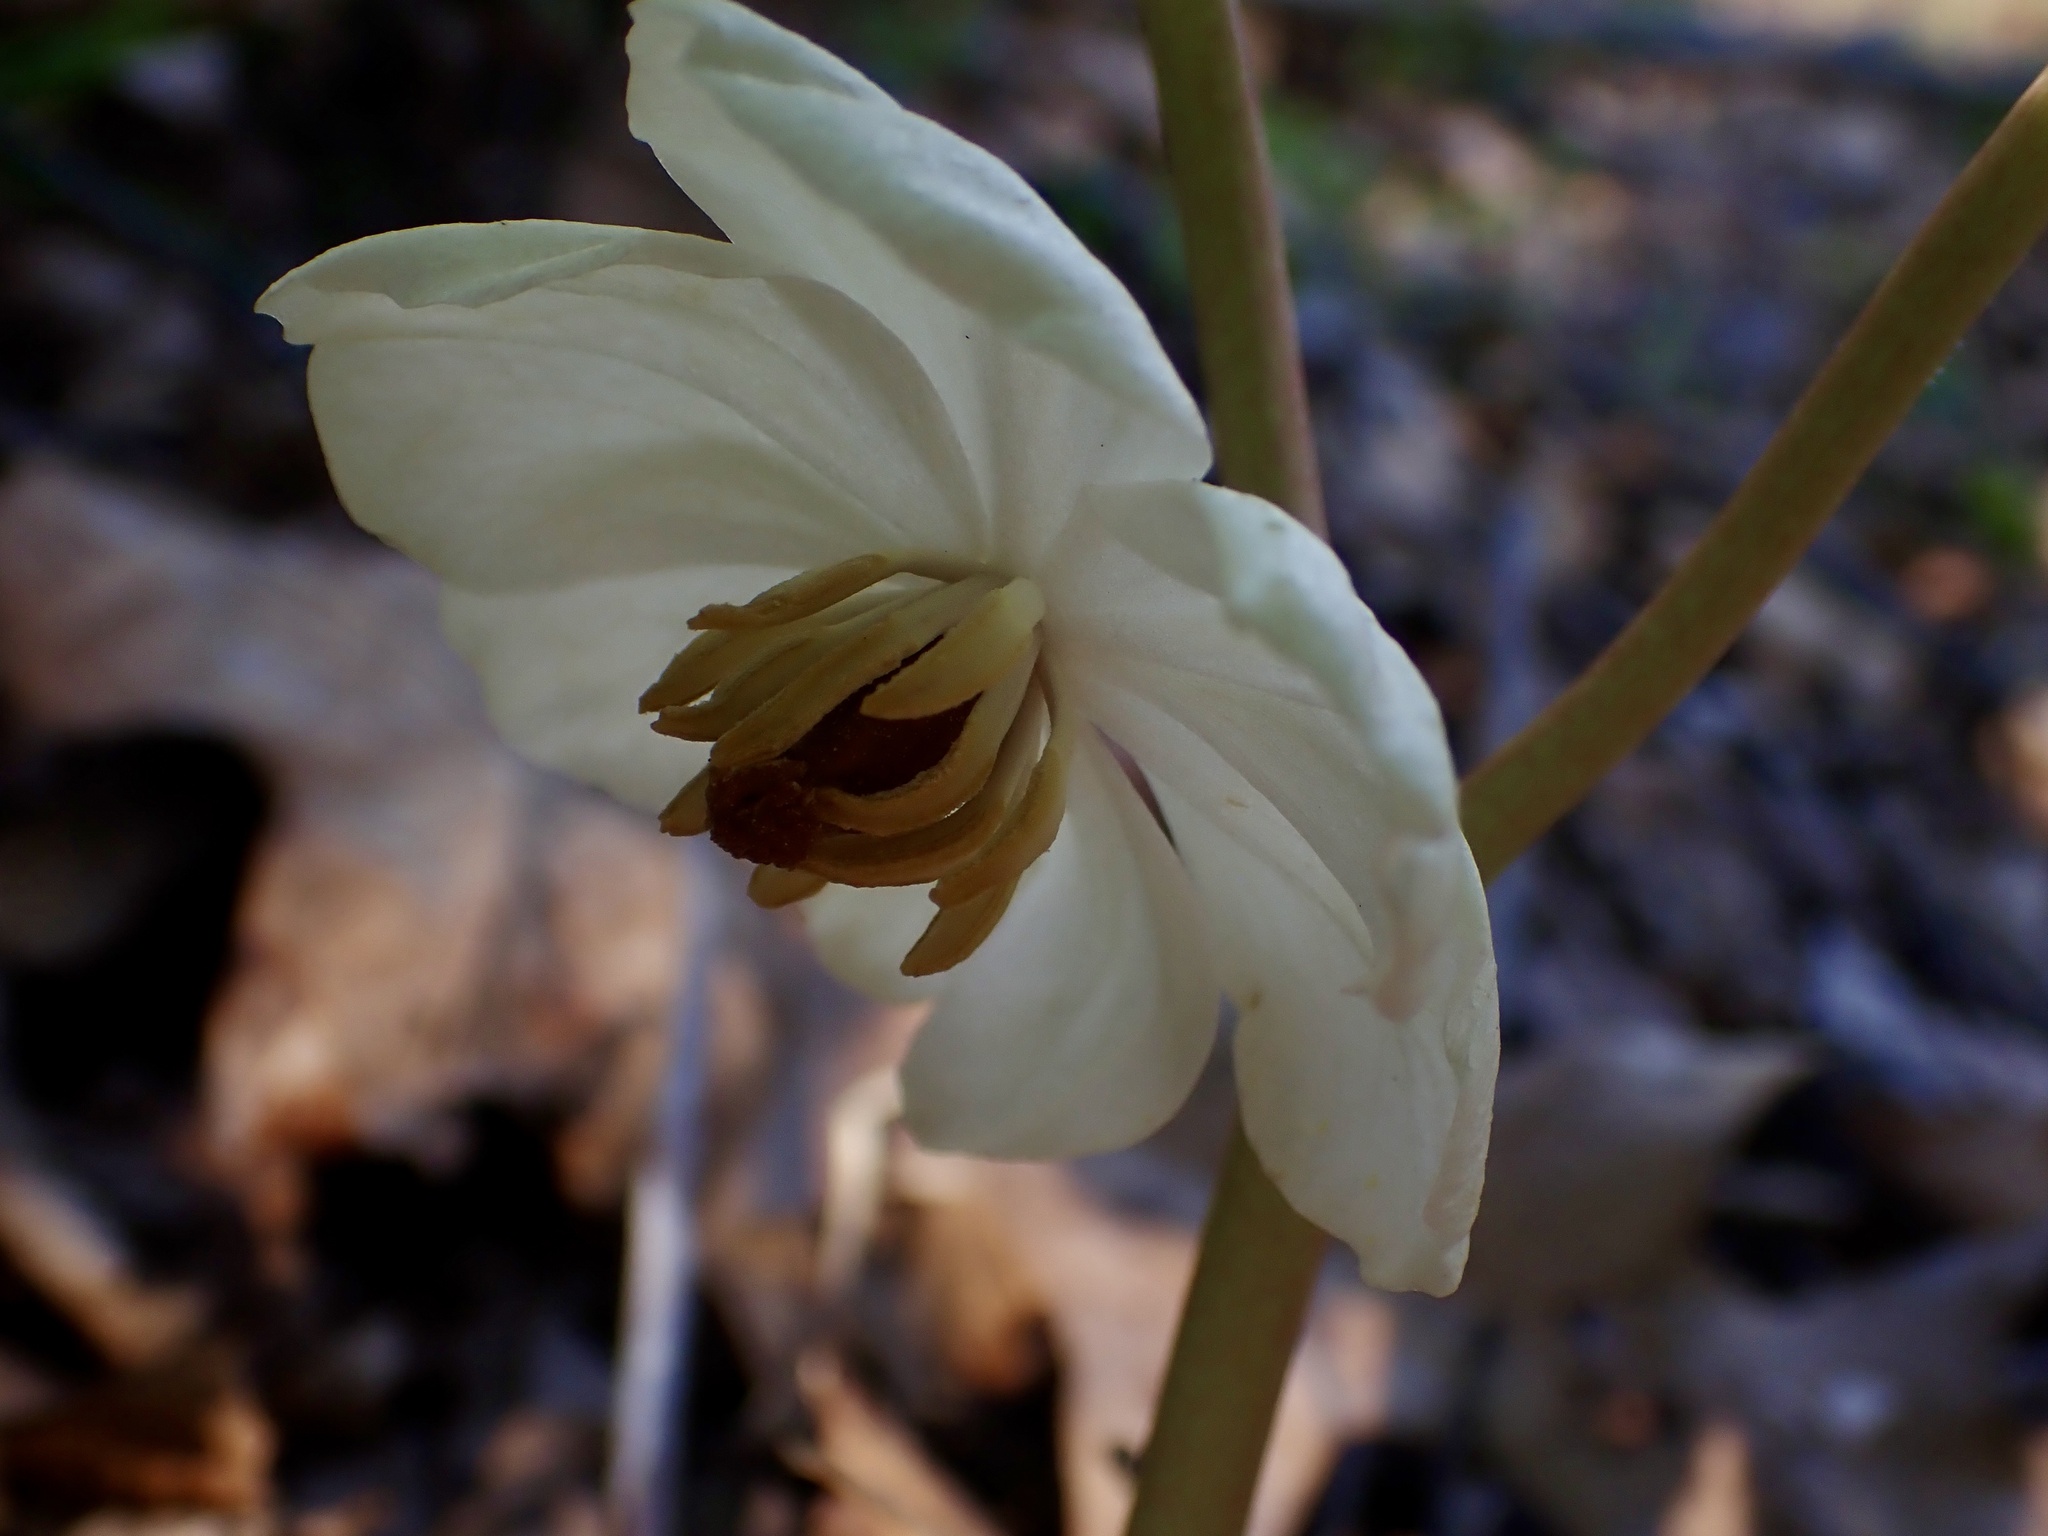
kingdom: Plantae
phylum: Tracheophyta
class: Magnoliopsida
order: Ranunculales
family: Berberidaceae
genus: Podophyllum
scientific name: Podophyllum peltatum
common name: Wild mandrake
